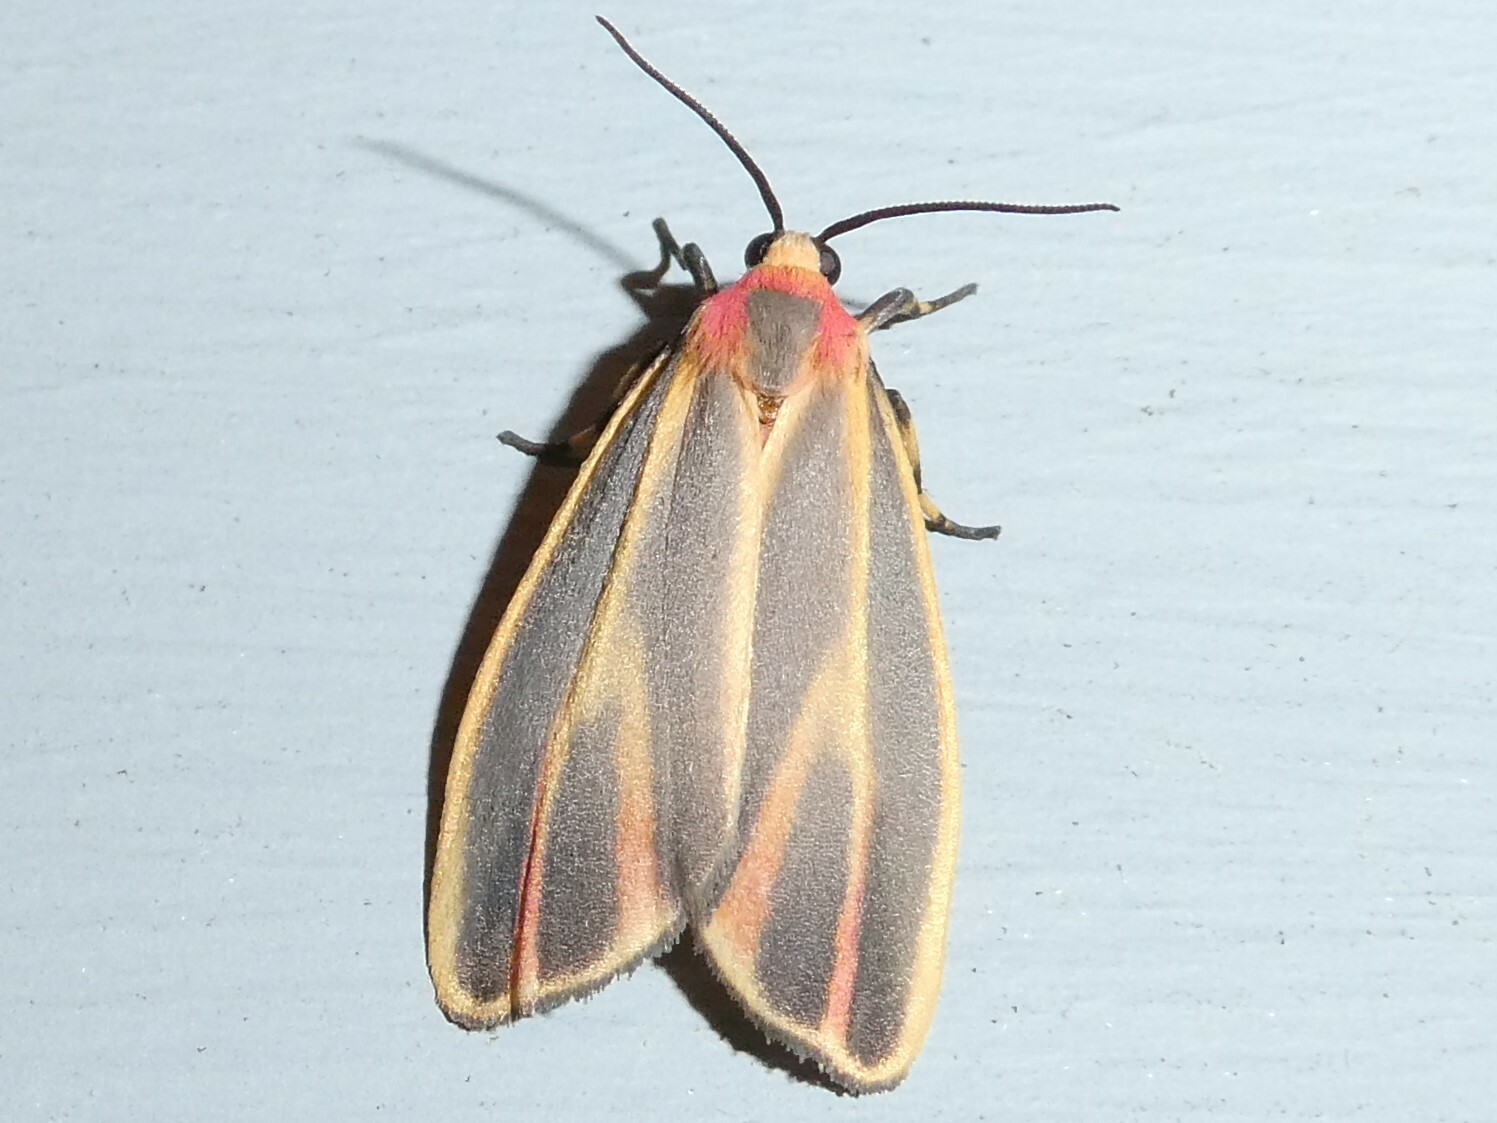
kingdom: Animalia
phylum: Arthropoda
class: Insecta
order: Lepidoptera
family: Erebidae
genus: Hypoprepia
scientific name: Hypoprepia fucosa
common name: Painted lichen moth
